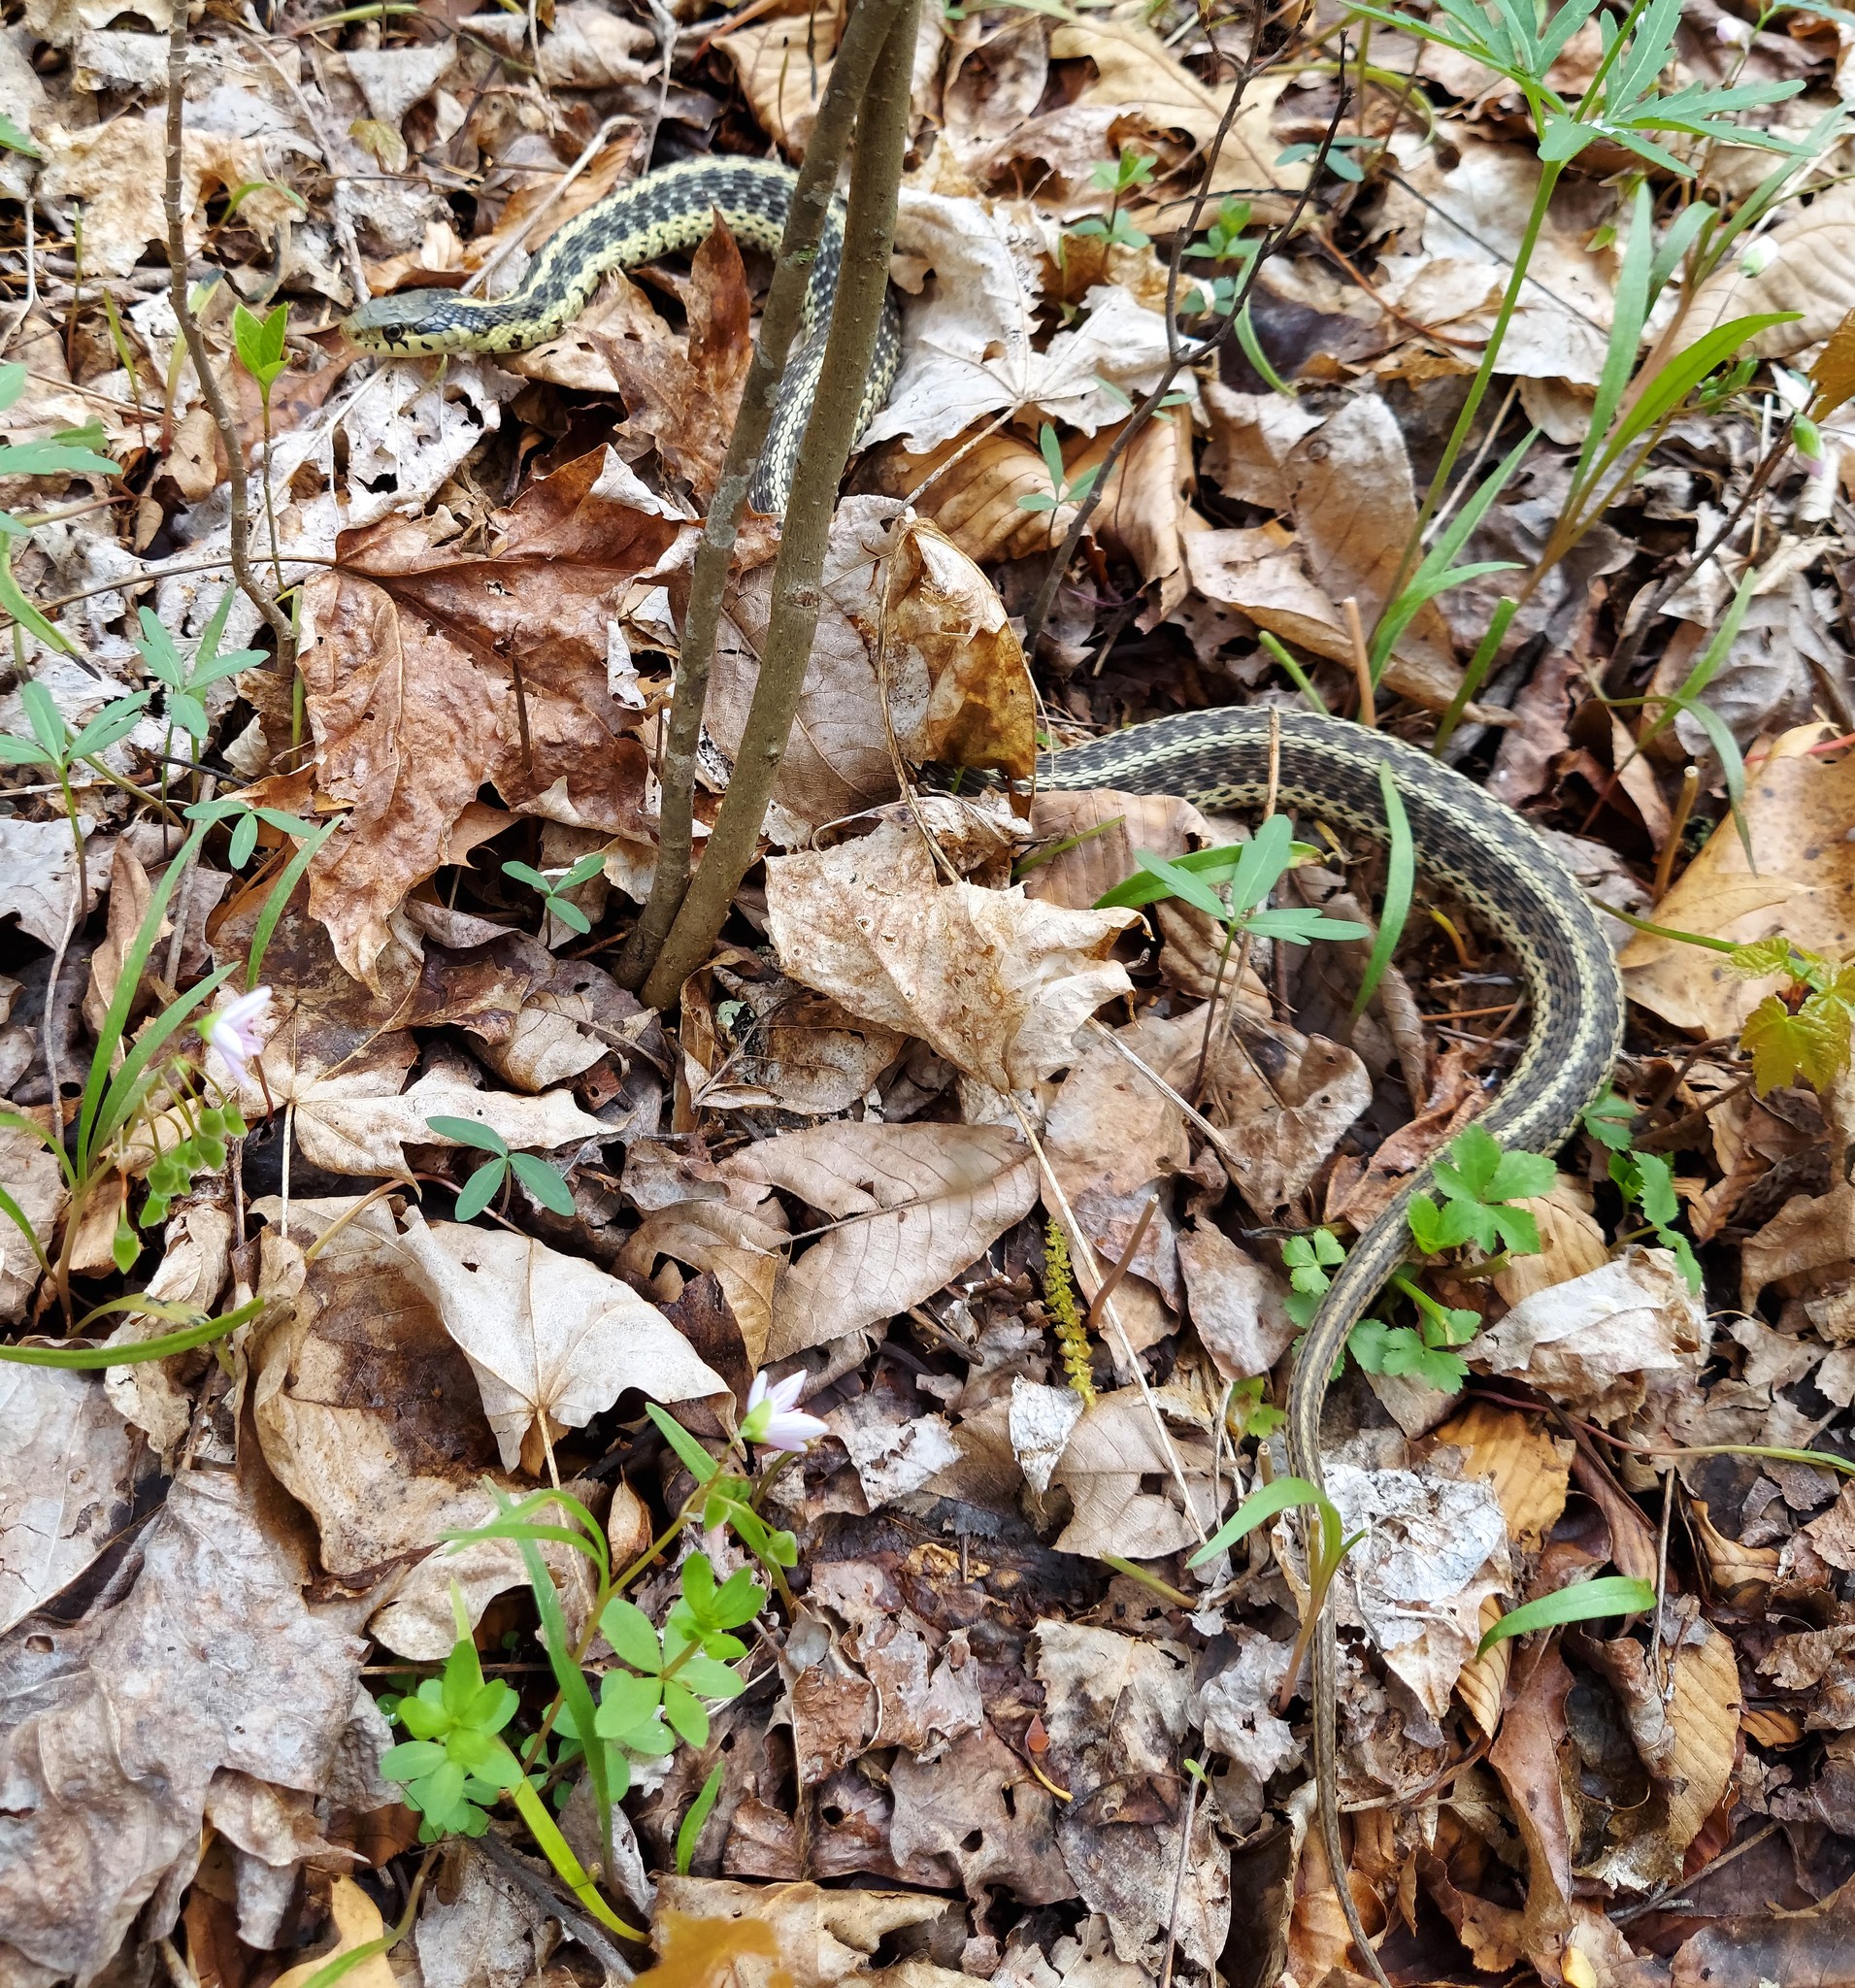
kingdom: Animalia
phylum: Chordata
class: Squamata
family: Colubridae
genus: Thamnophis
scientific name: Thamnophis sirtalis
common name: Common garter snake
